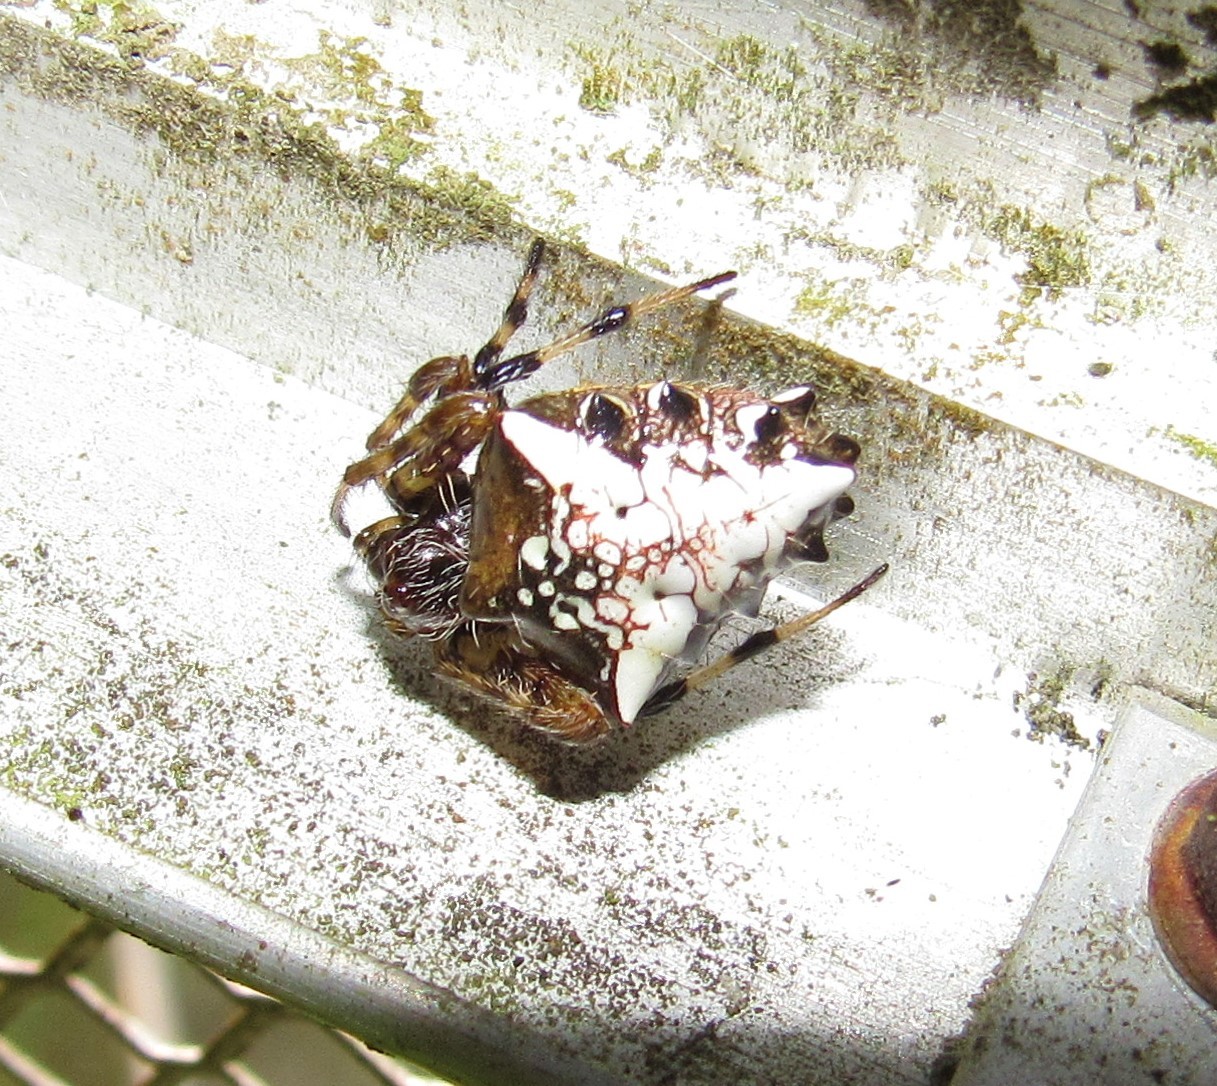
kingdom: Animalia
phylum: Arthropoda
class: Arachnida
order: Araneae
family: Araneidae
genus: Verrucosa
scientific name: Verrucosa meridionalis
